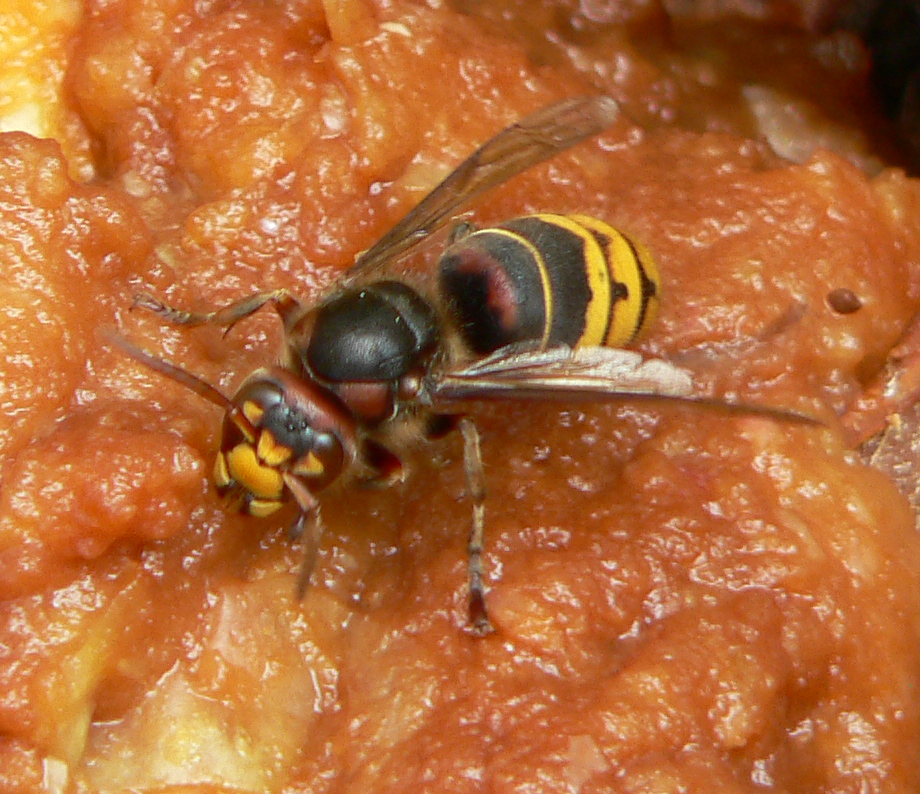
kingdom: Animalia
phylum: Arthropoda
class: Insecta
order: Hymenoptera
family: Vespidae
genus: Vespa
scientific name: Vespa crabro
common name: Hornet
